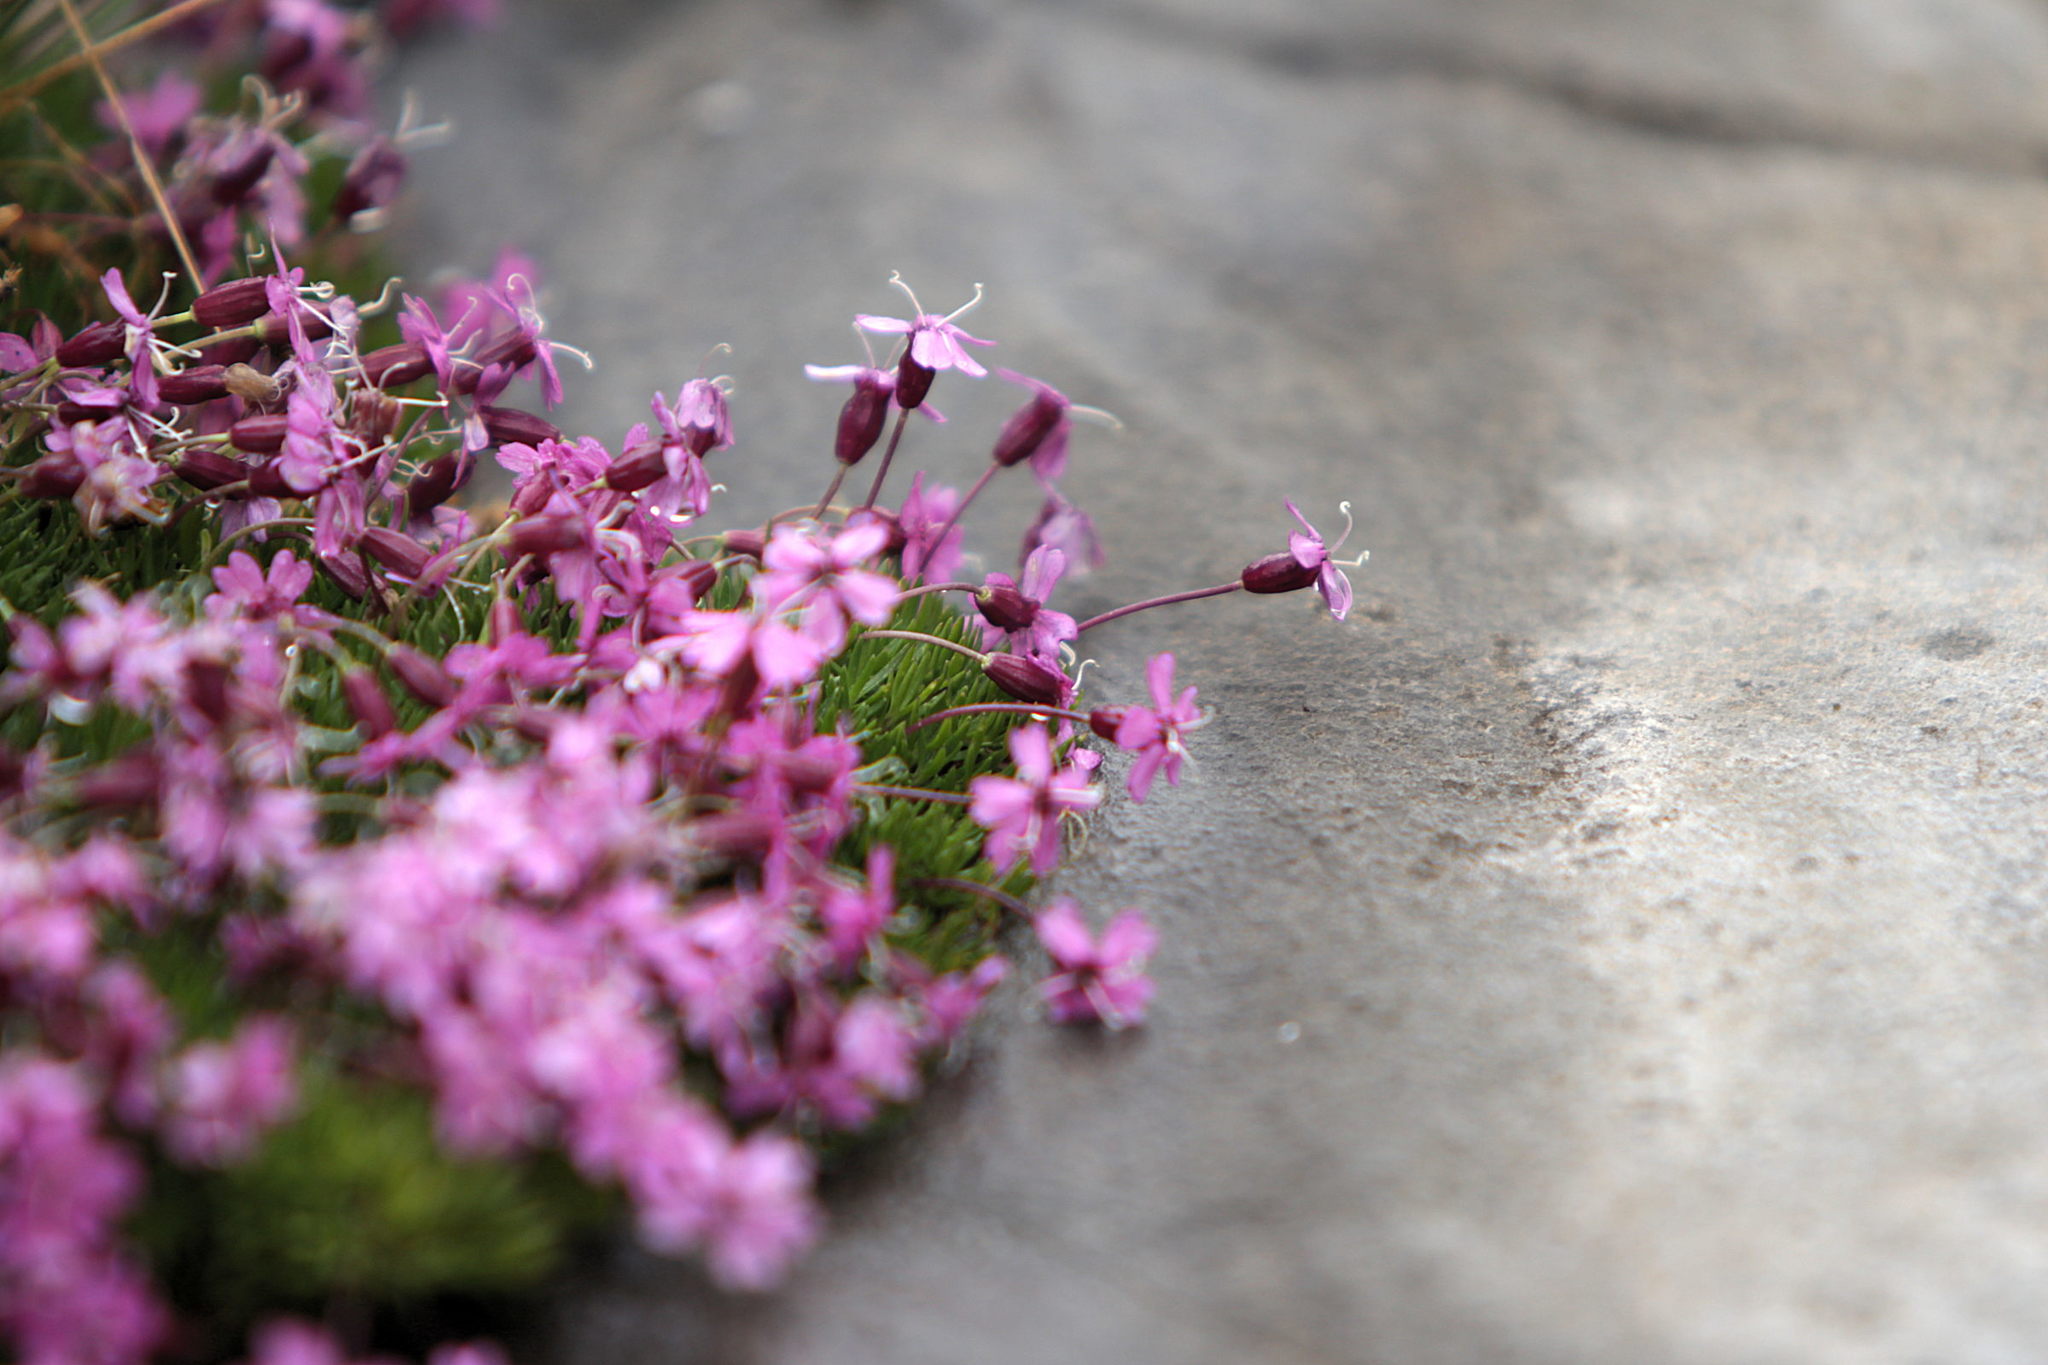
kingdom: Plantae
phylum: Tracheophyta
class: Magnoliopsida
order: Caryophyllales
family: Caryophyllaceae
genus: Silene
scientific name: Silene acaulis
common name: Moss campion
